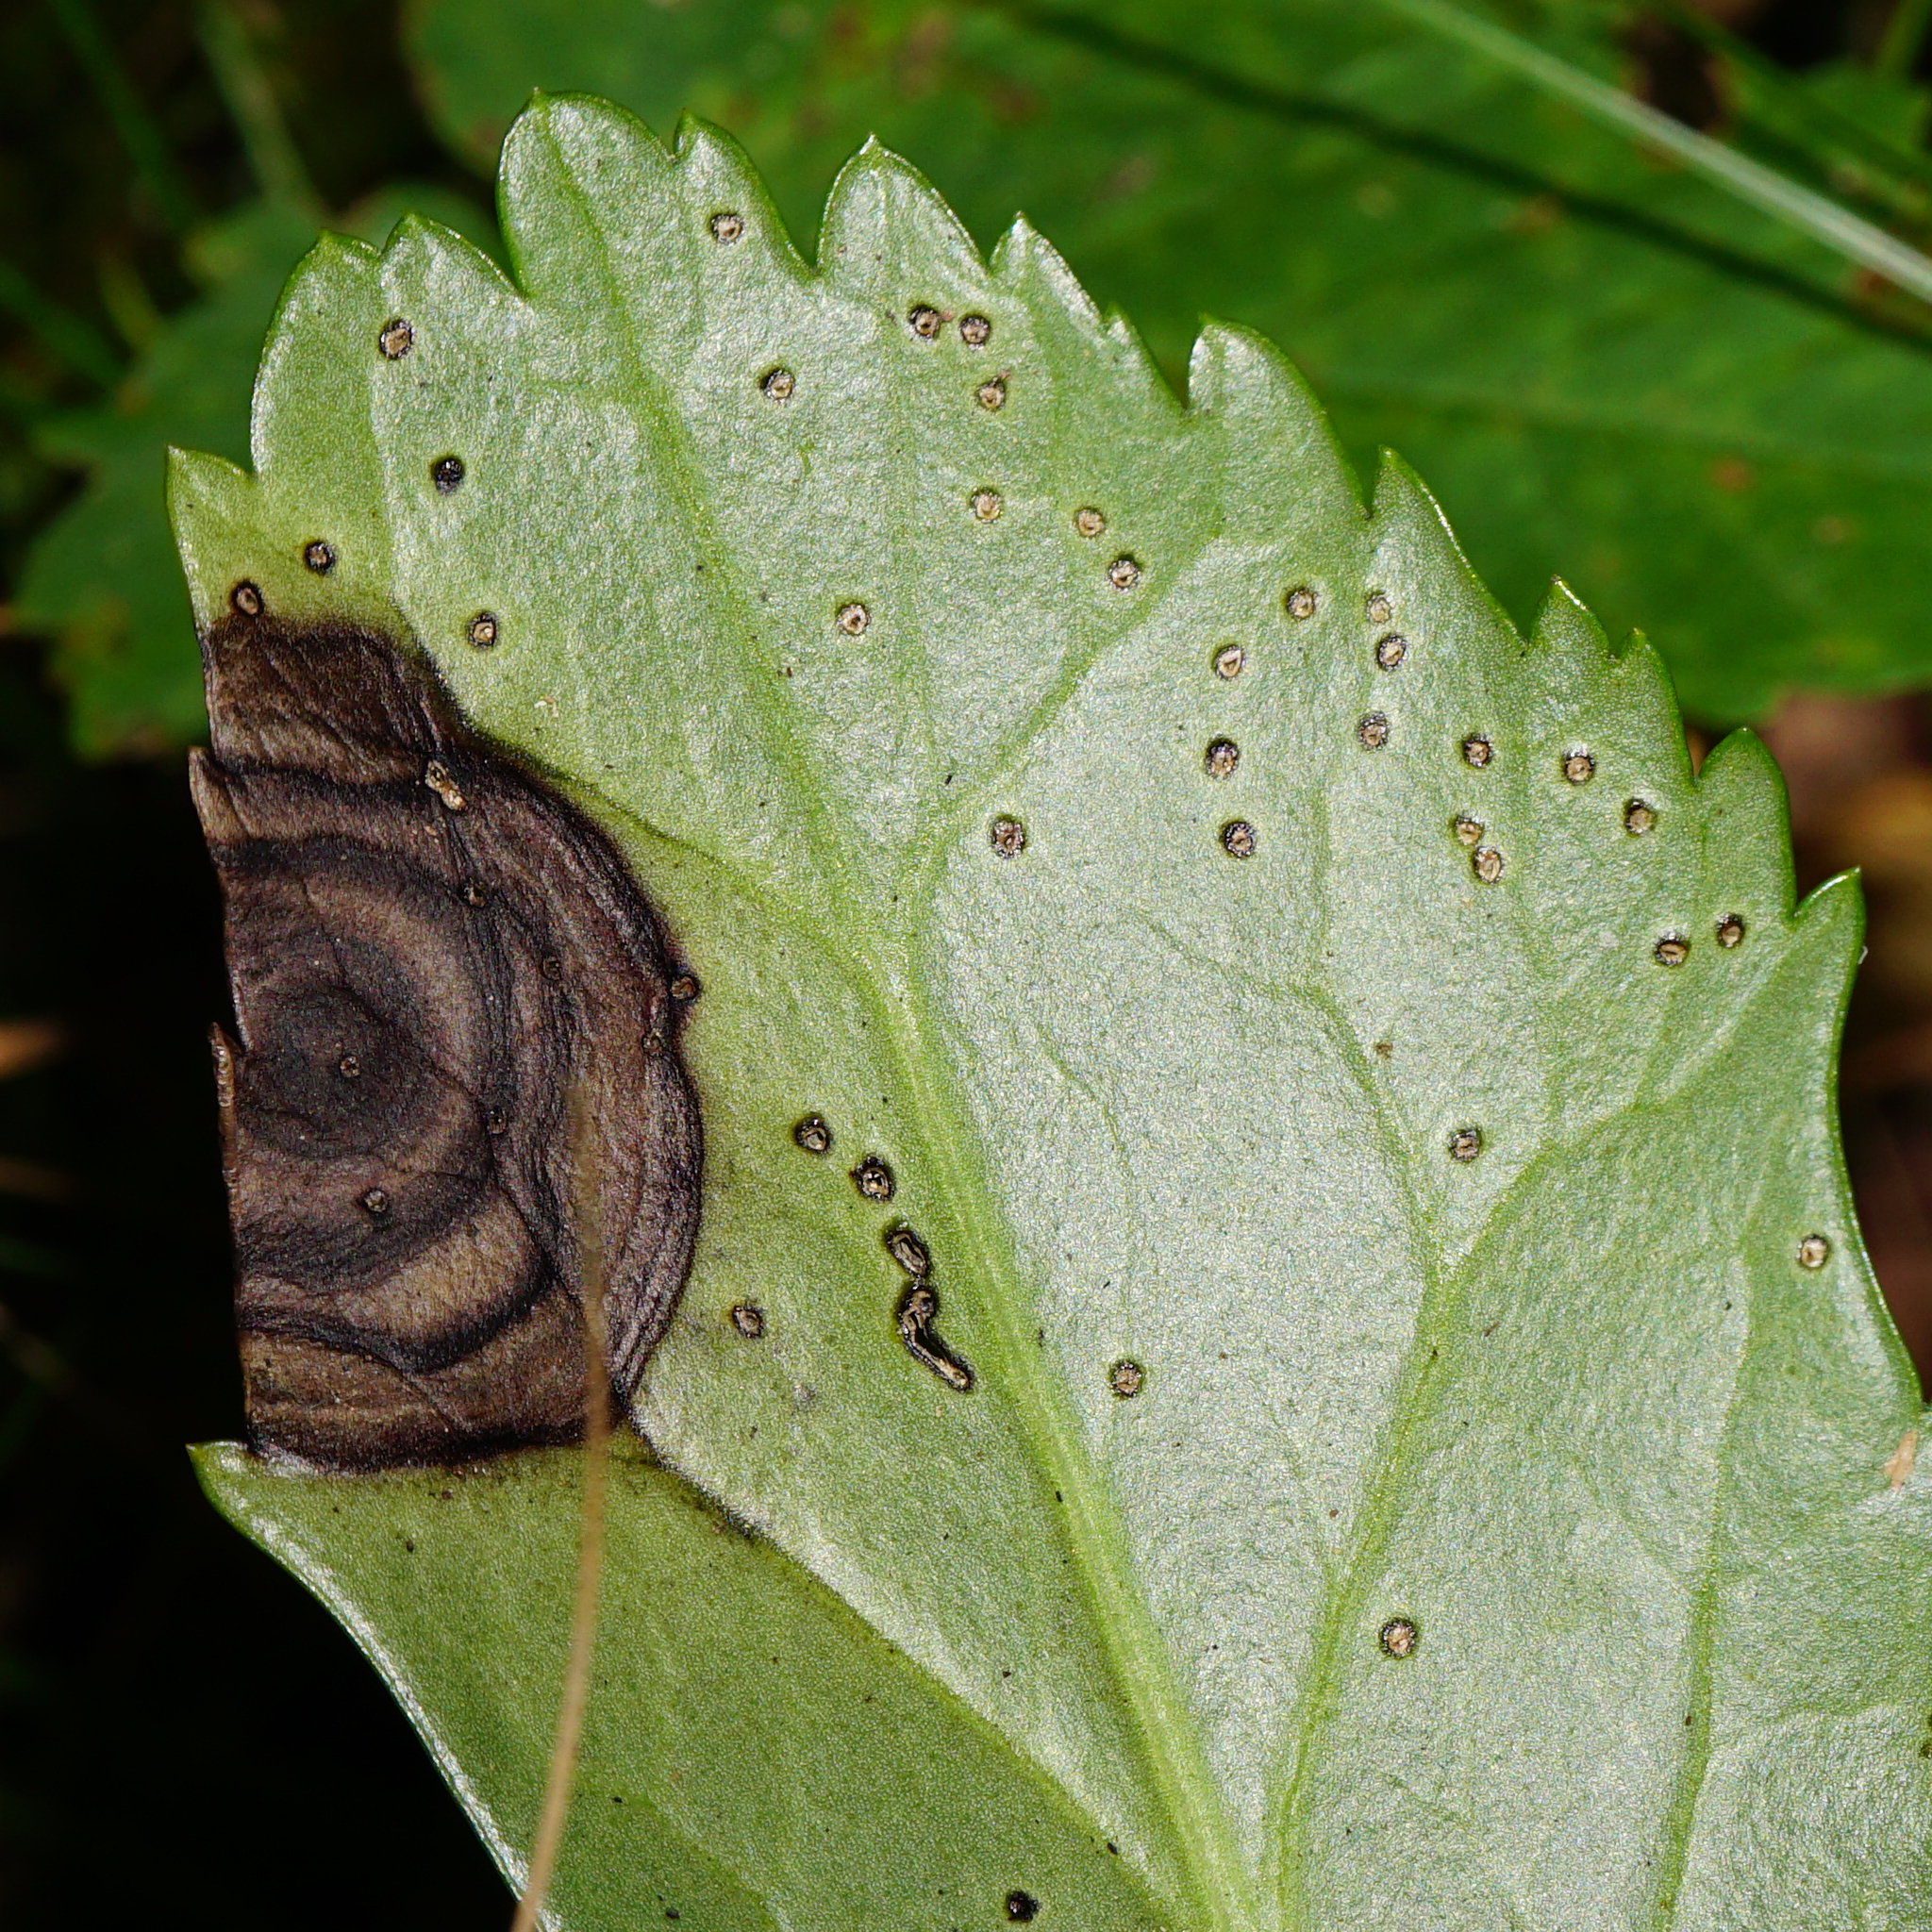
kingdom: Fungi
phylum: Ascomycota
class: Dothideomycetes
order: Pleosporales
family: Didymellaceae
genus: Microsphaeropsis
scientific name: Microsphaeropsis hellebori
